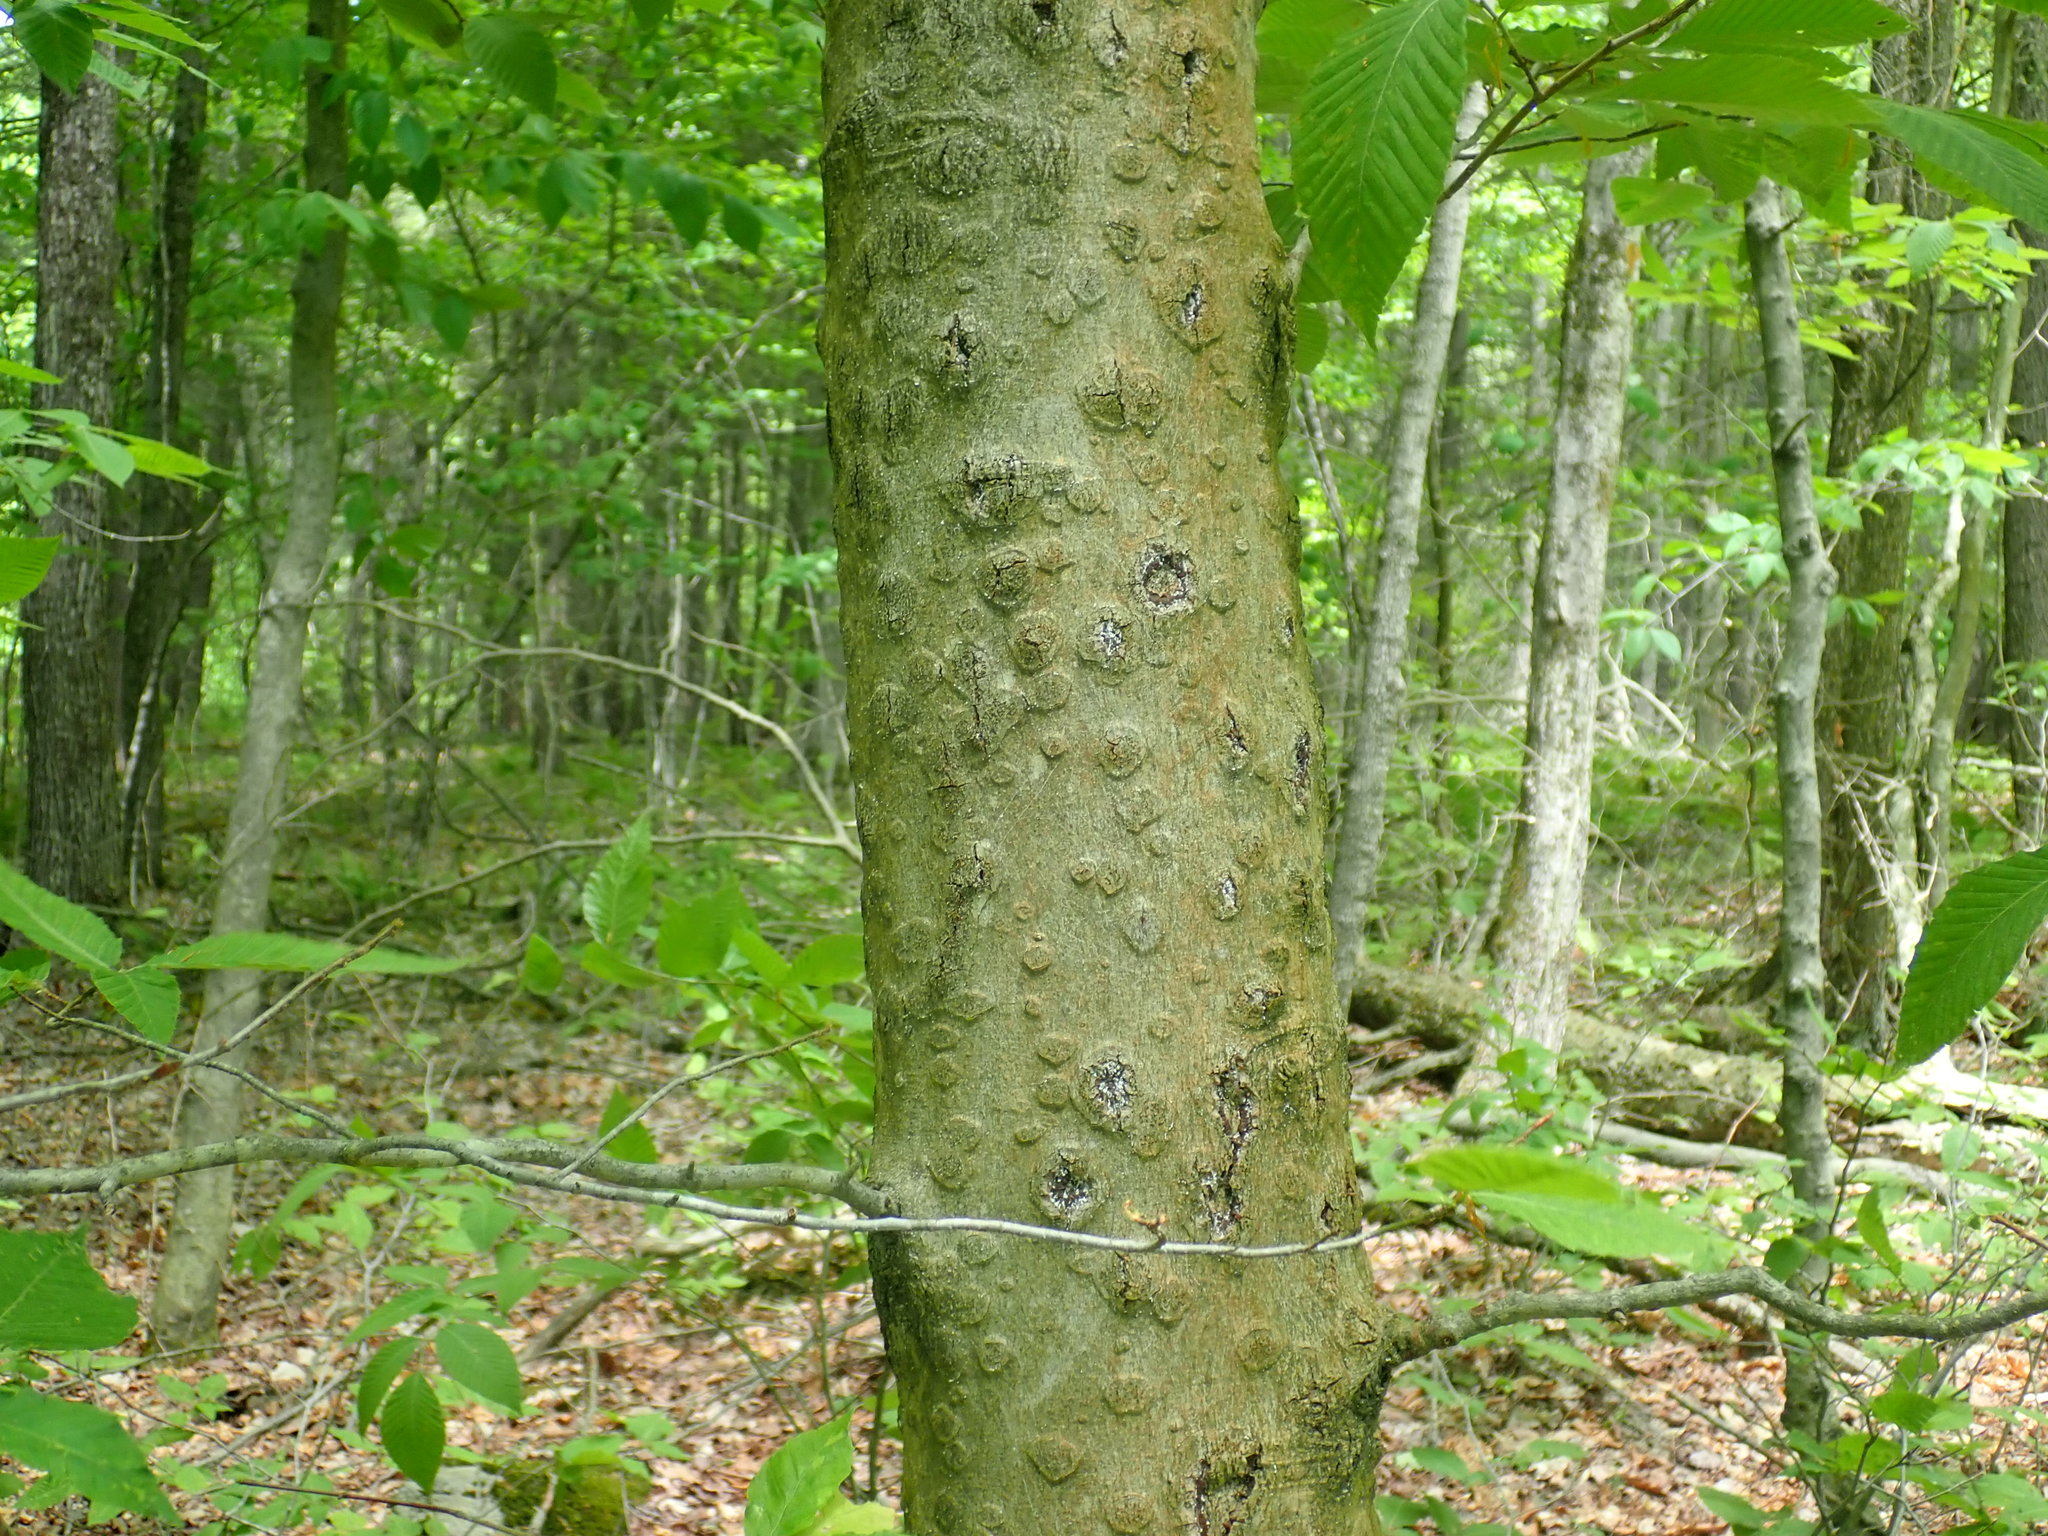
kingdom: Fungi
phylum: Ascomycota
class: Sordariomycetes
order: Hypocreales
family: Nectriaceae
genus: Neonectria
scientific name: Neonectria faginata
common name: Beech bark canker
